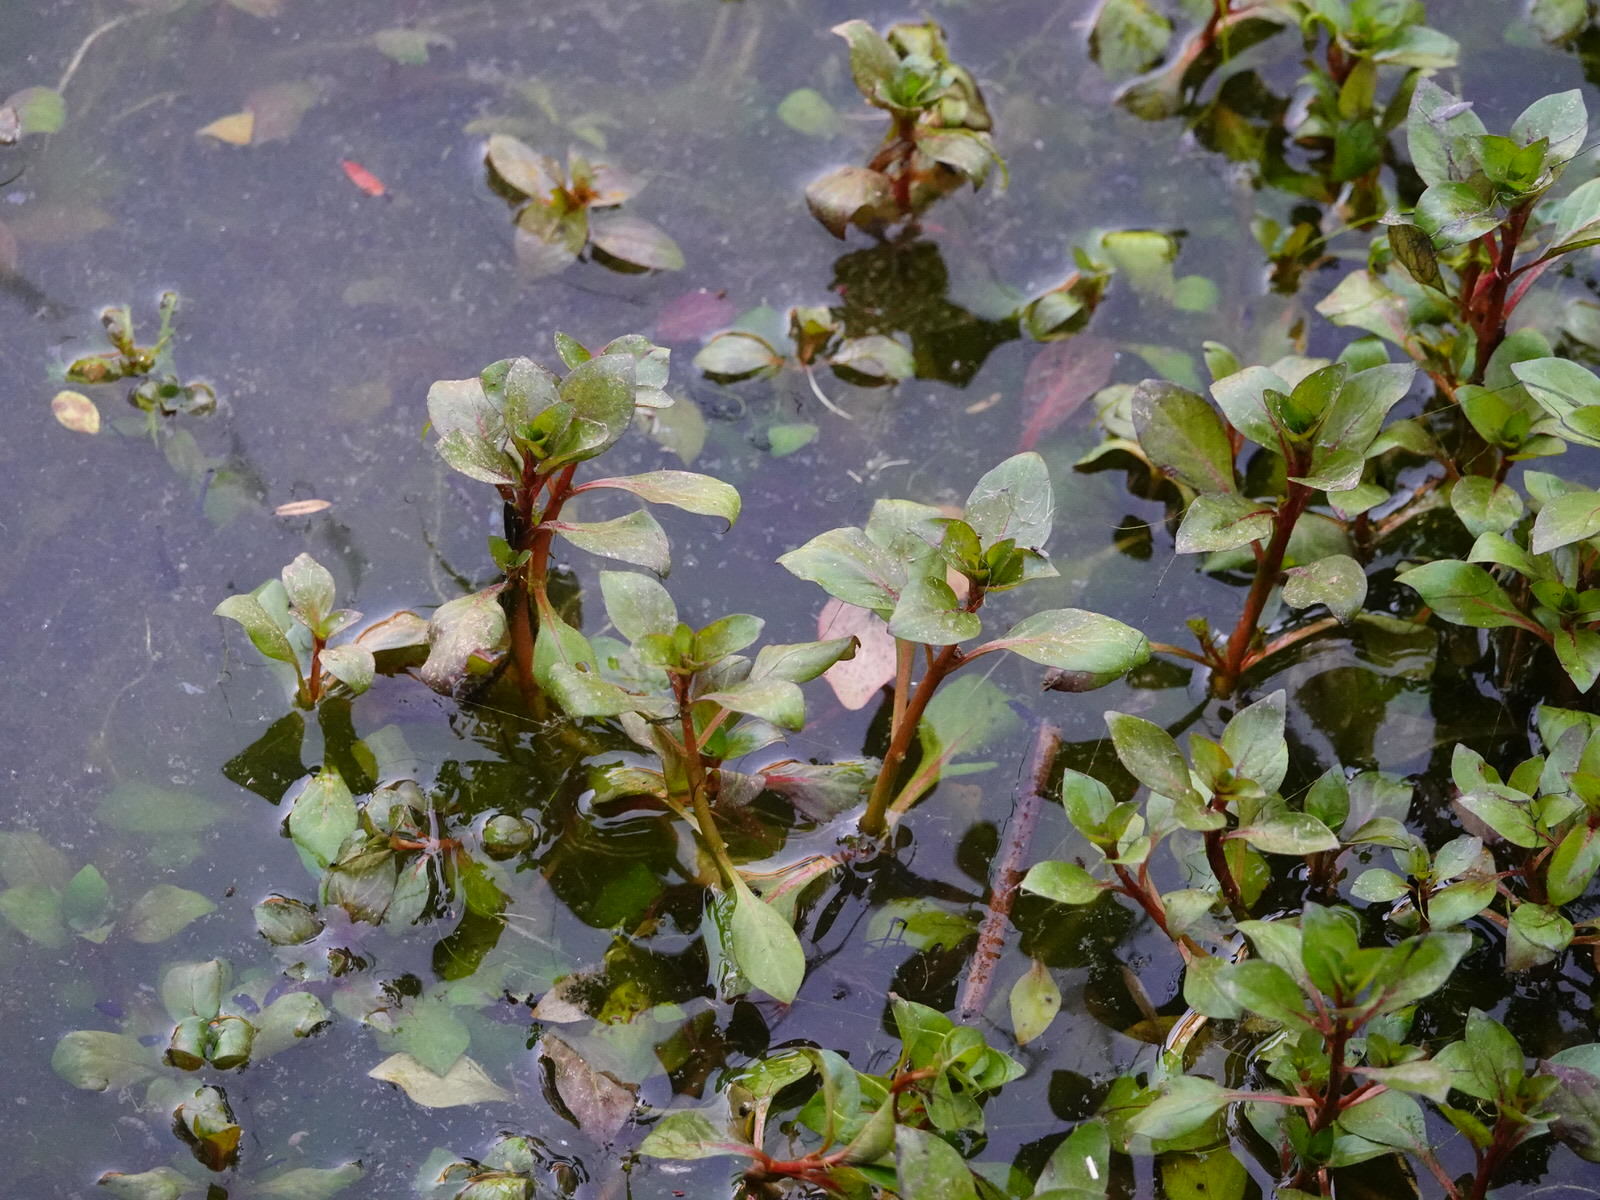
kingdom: Plantae
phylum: Tracheophyta
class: Magnoliopsida
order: Myrtales
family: Onagraceae
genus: Ludwigia
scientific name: Ludwigia palustris
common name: Hampshire-purslane
